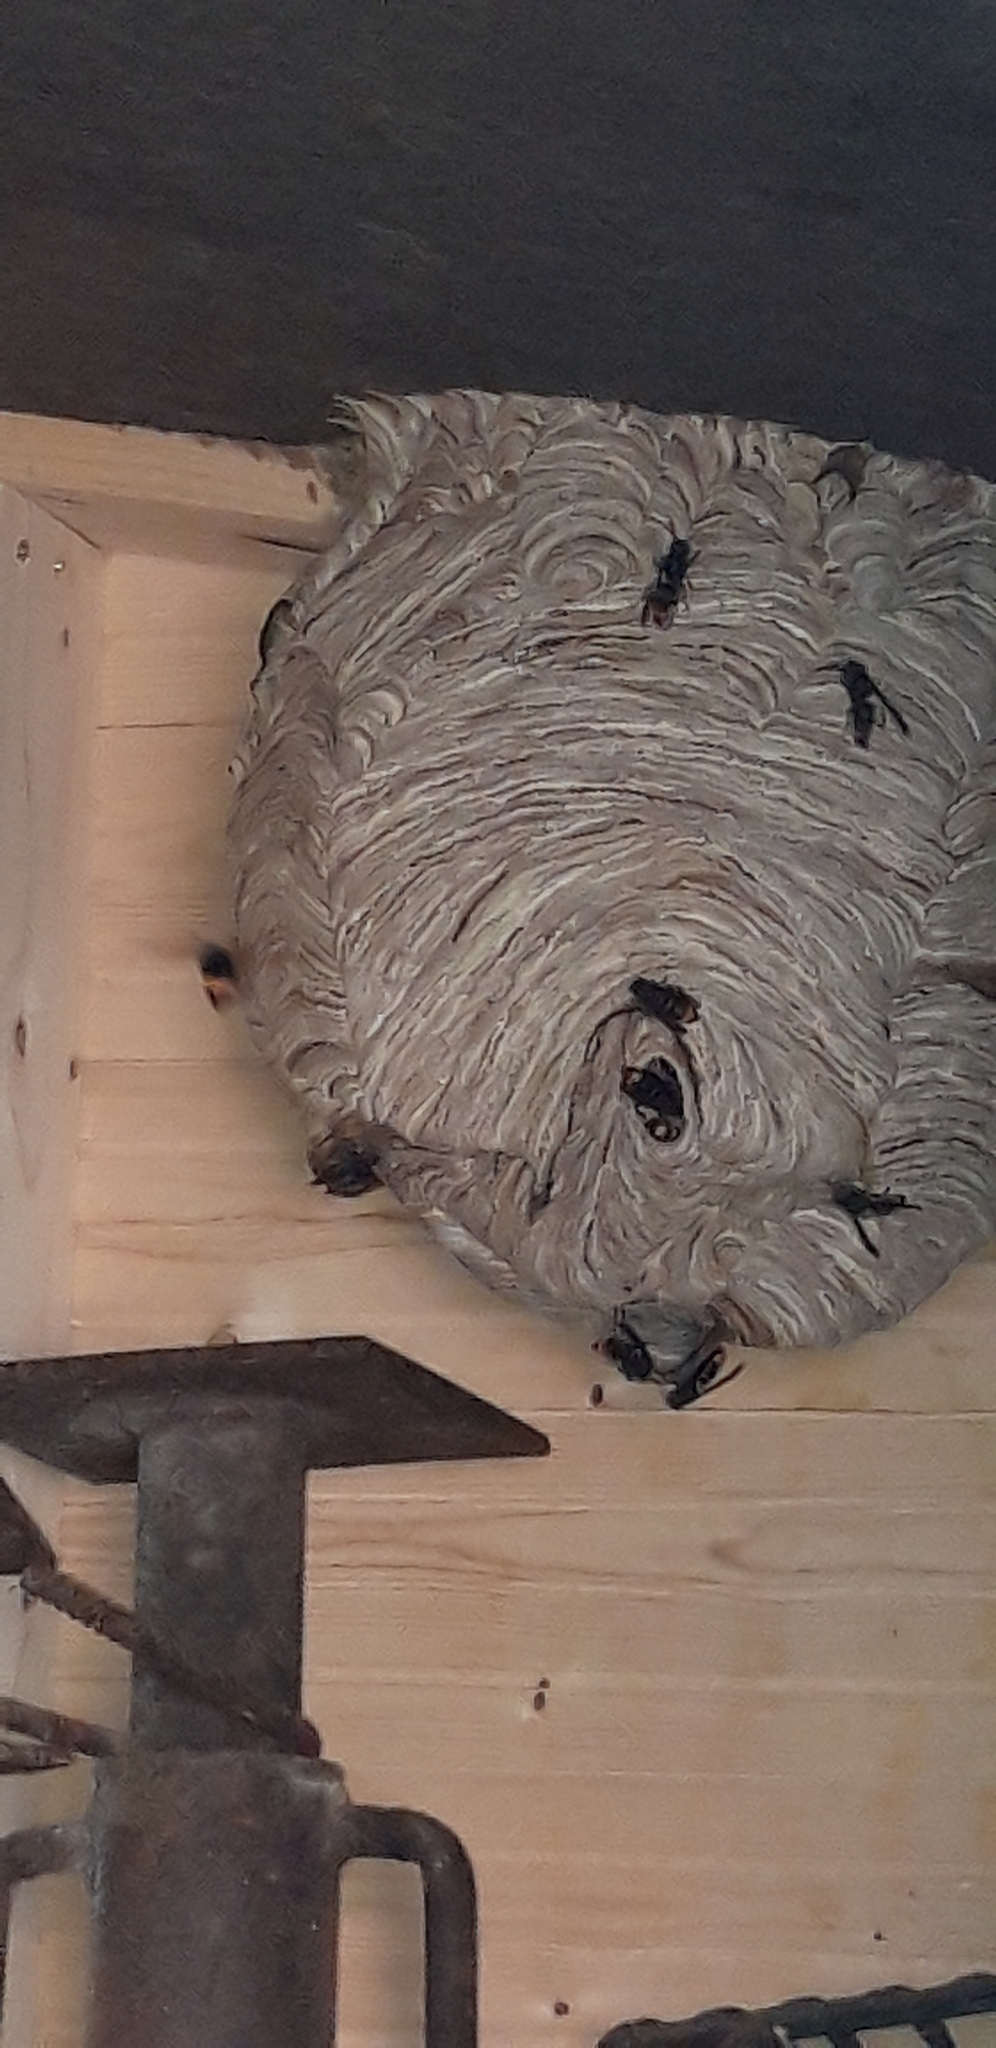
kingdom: Animalia
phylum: Arthropoda
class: Insecta
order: Hymenoptera
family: Vespidae
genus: Vespa
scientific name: Vespa velutina
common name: Asian hornet
